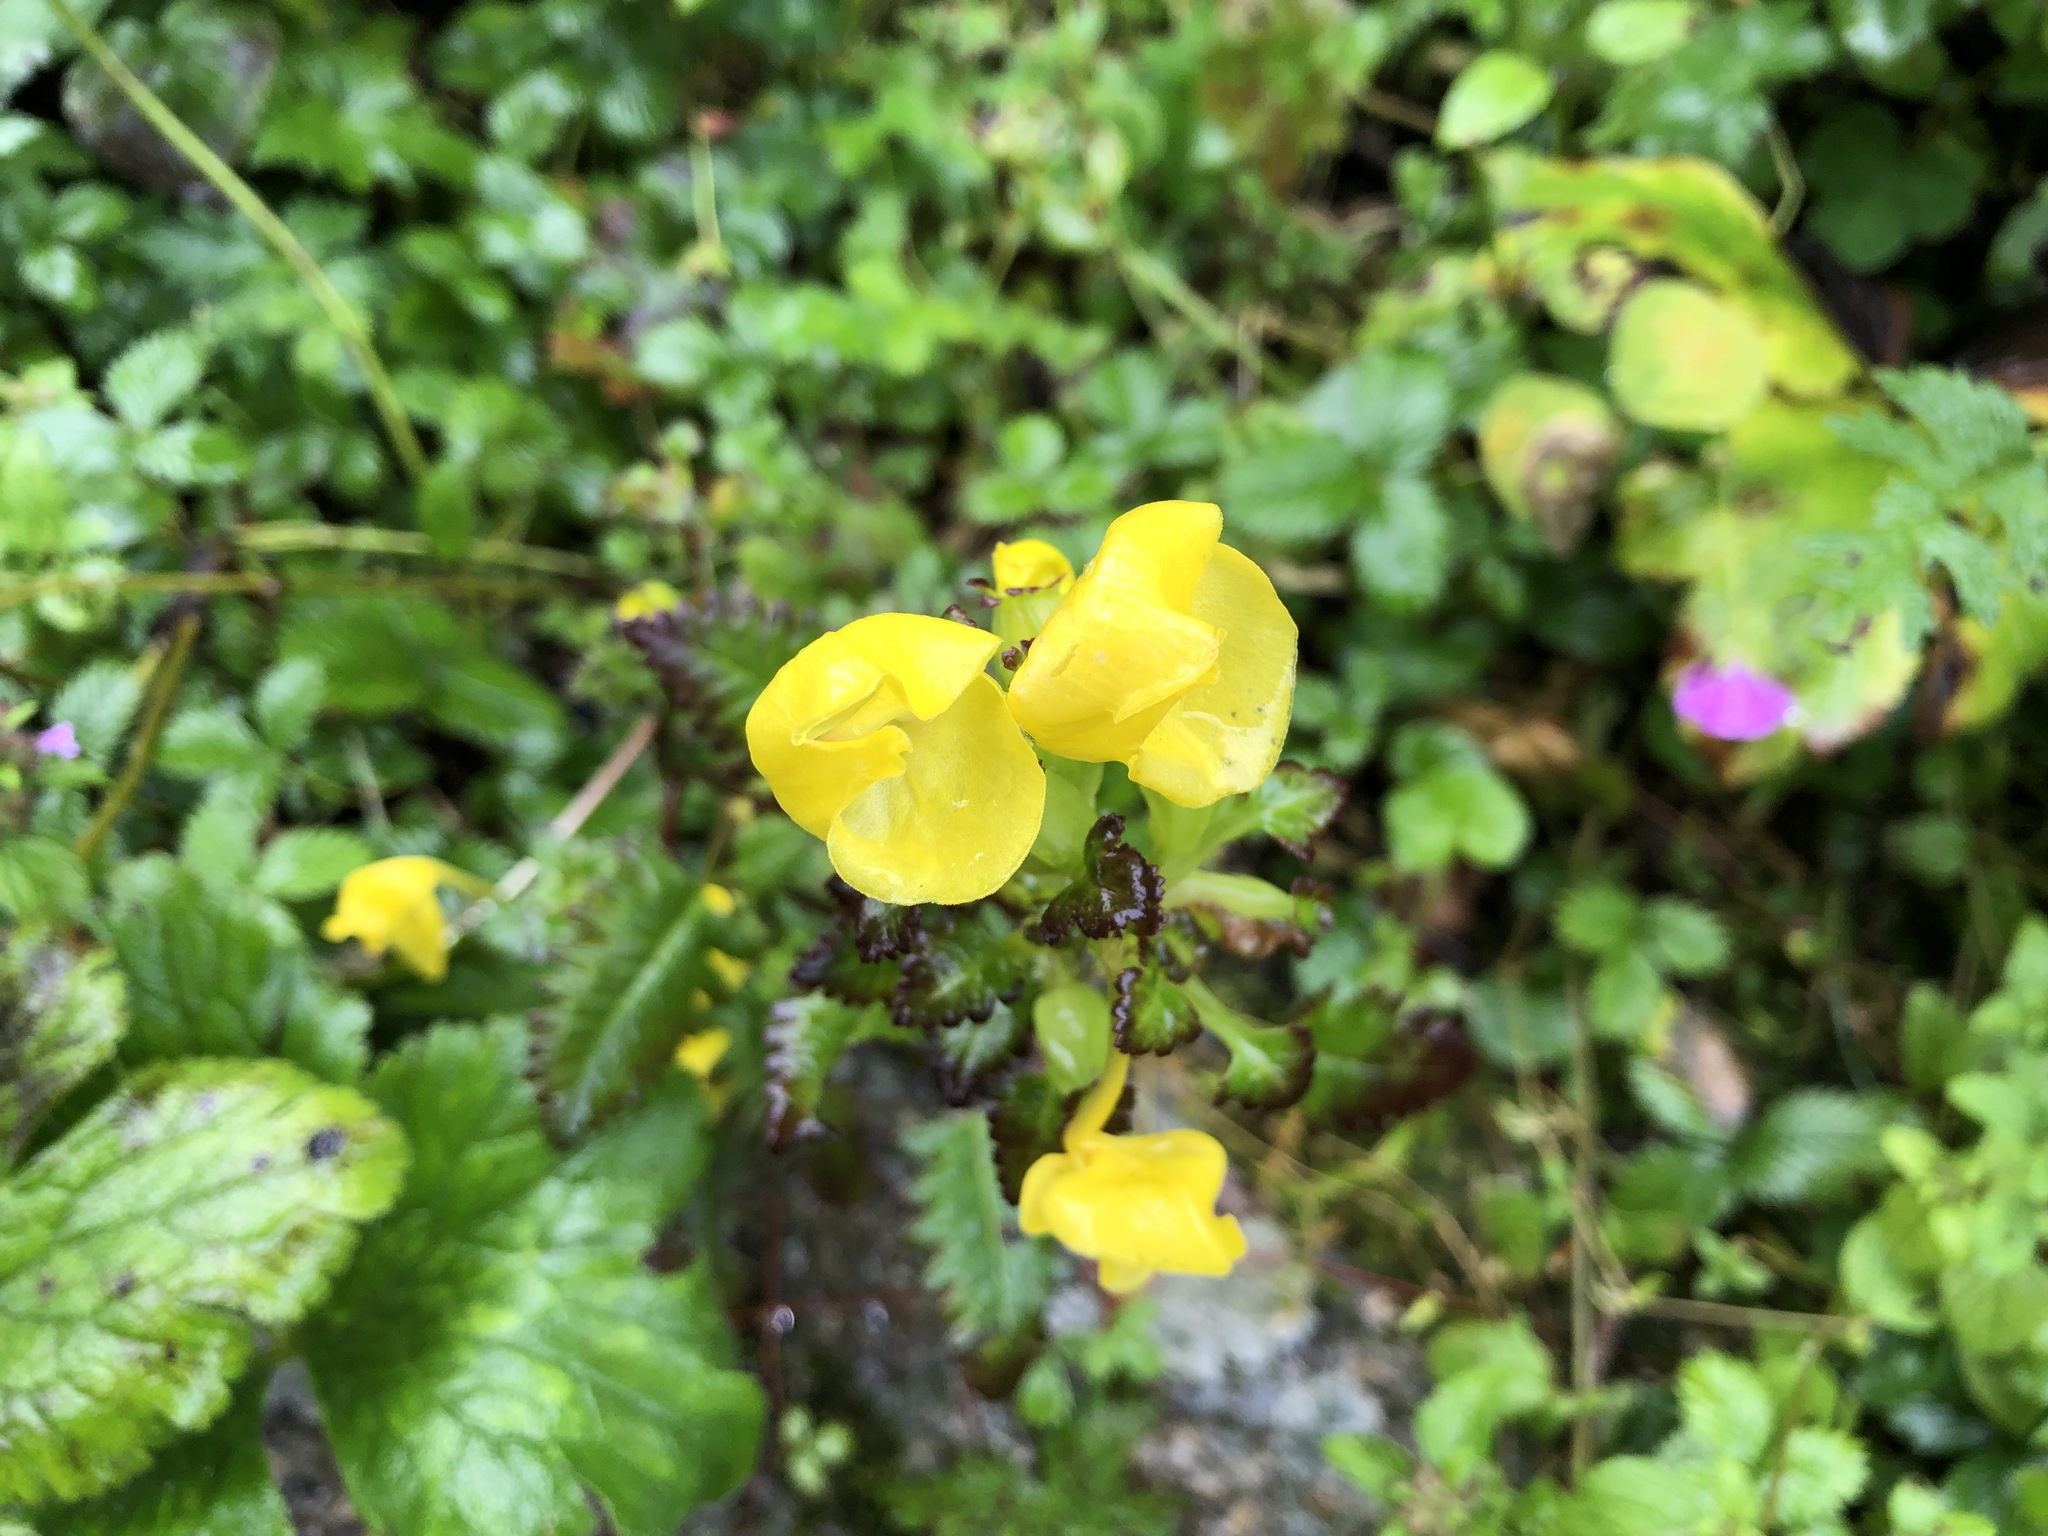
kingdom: Plantae
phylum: Tracheophyta
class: Magnoliopsida
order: Lamiales
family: Orobanchaceae
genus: Pedicularis
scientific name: Pedicularis hoffmeisteri
